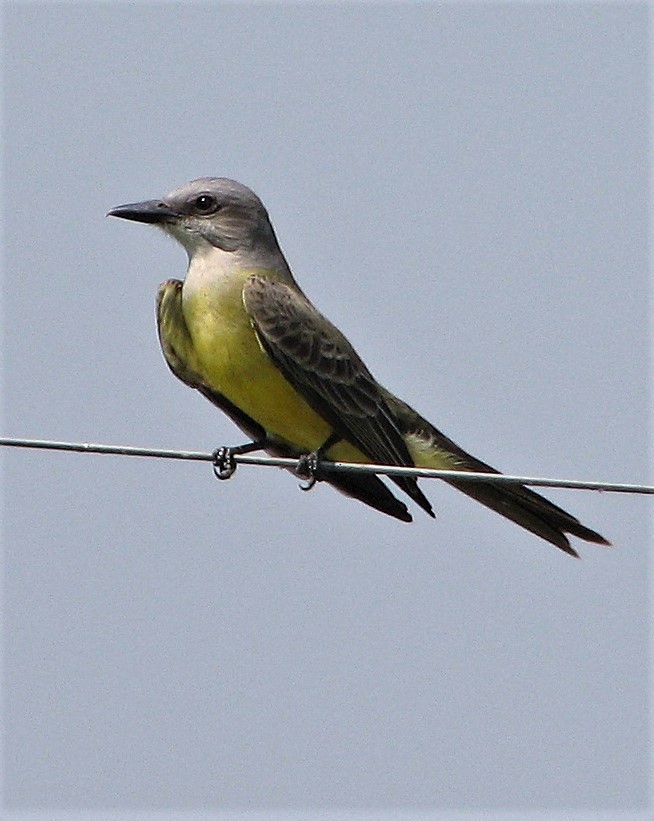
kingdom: Animalia
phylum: Chordata
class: Aves
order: Passeriformes
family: Tyrannidae
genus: Tyrannus
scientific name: Tyrannus melancholicus
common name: Tropical kingbird
